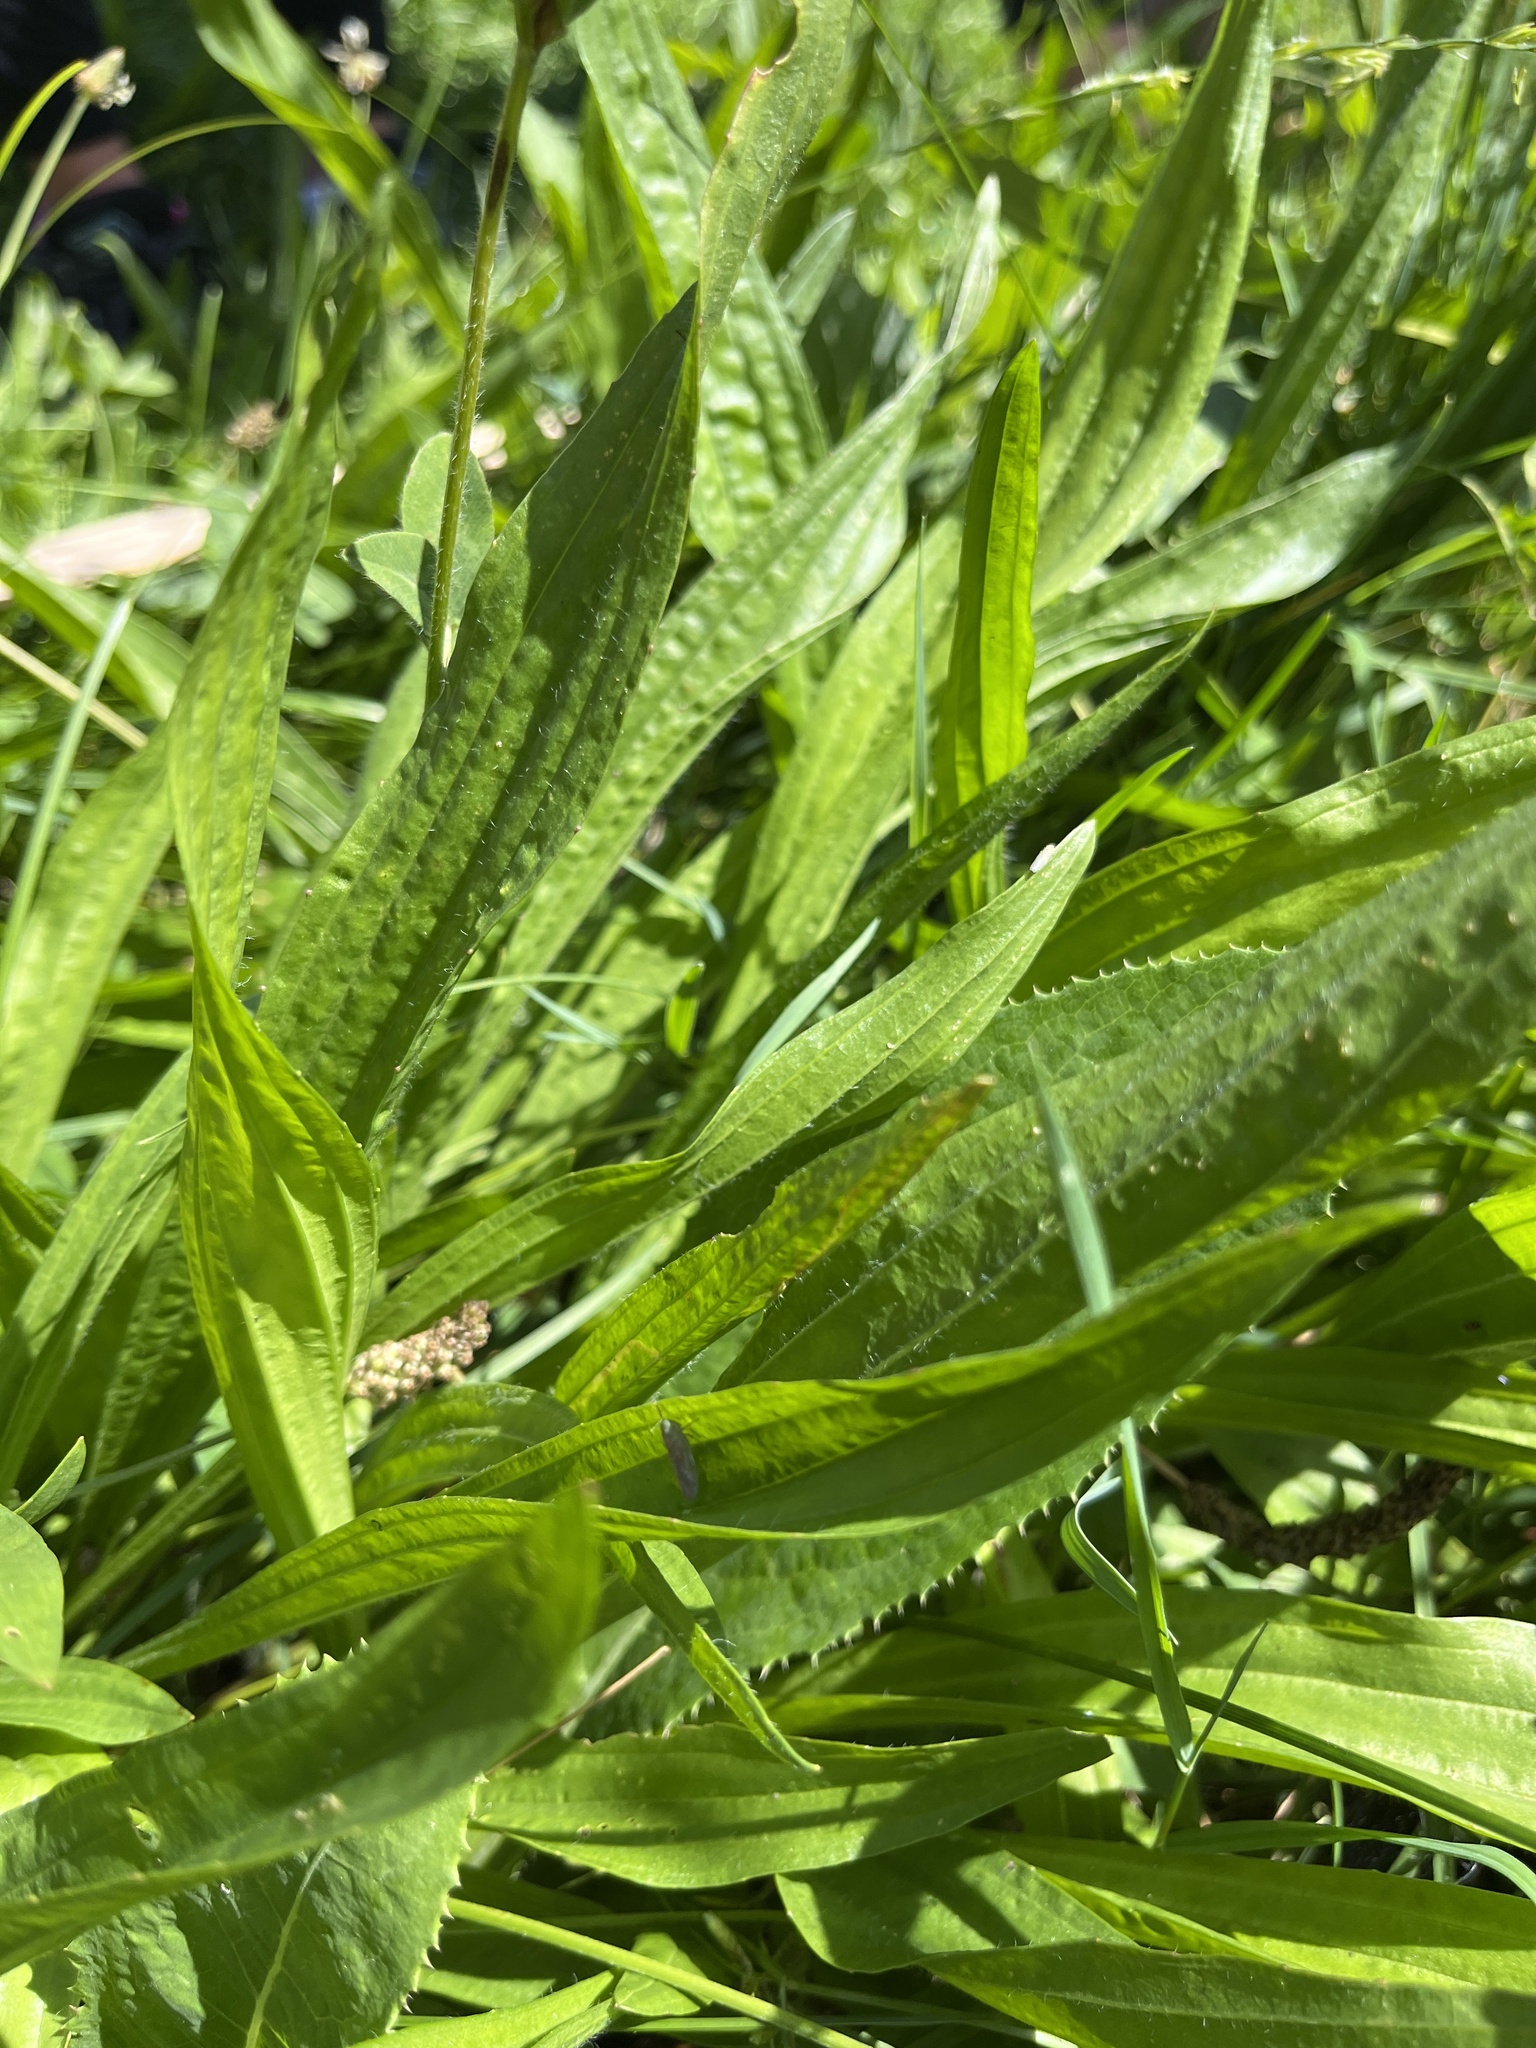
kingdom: Plantae
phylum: Tracheophyta
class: Magnoliopsida
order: Lamiales
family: Plantaginaceae
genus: Plantago
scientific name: Plantago lanceolata
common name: Ribwort plantain
